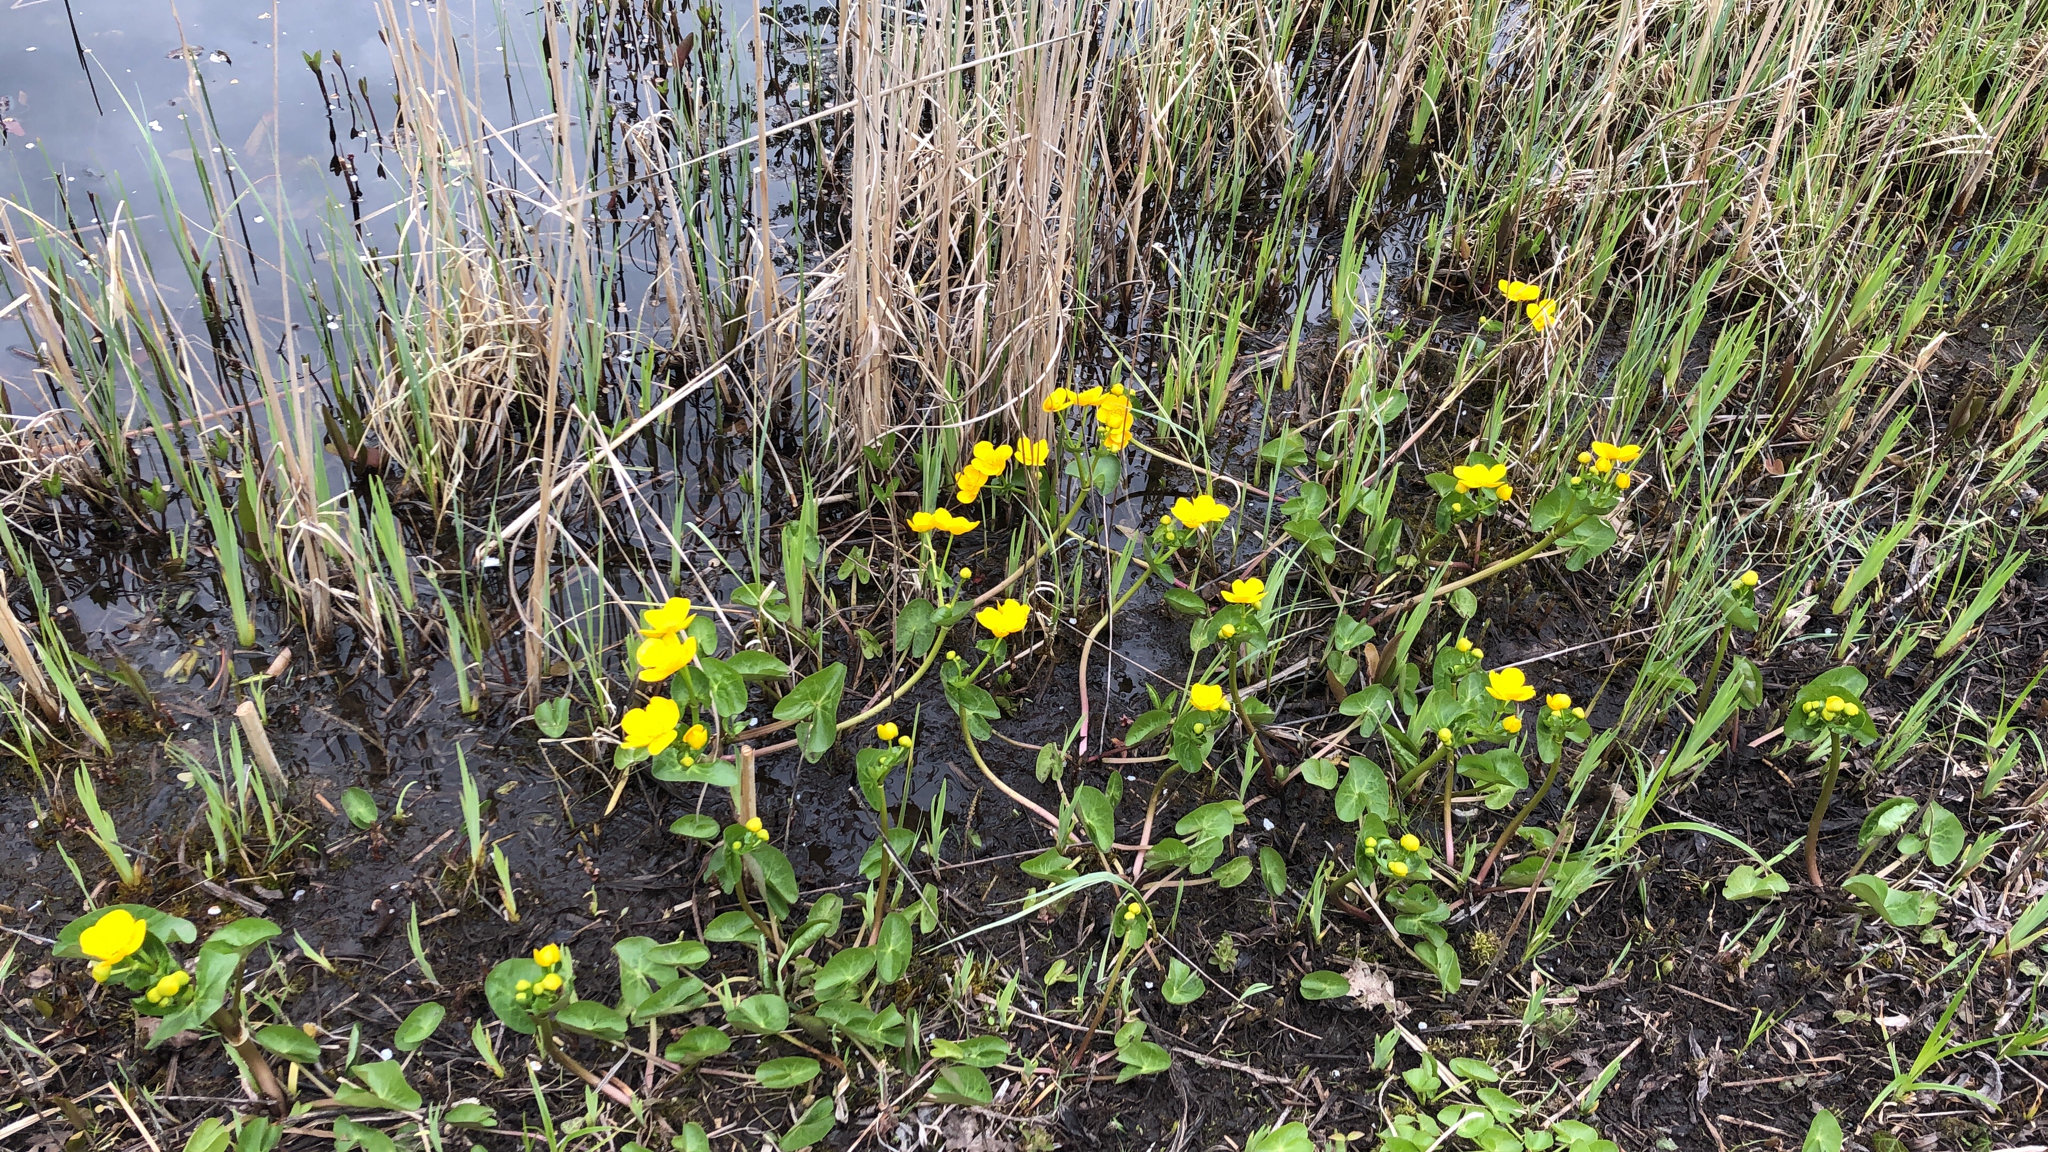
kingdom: Plantae
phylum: Tracheophyta
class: Magnoliopsida
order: Ranunculales
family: Ranunculaceae
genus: Caltha
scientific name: Caltha palustris
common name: Marsh marigold
